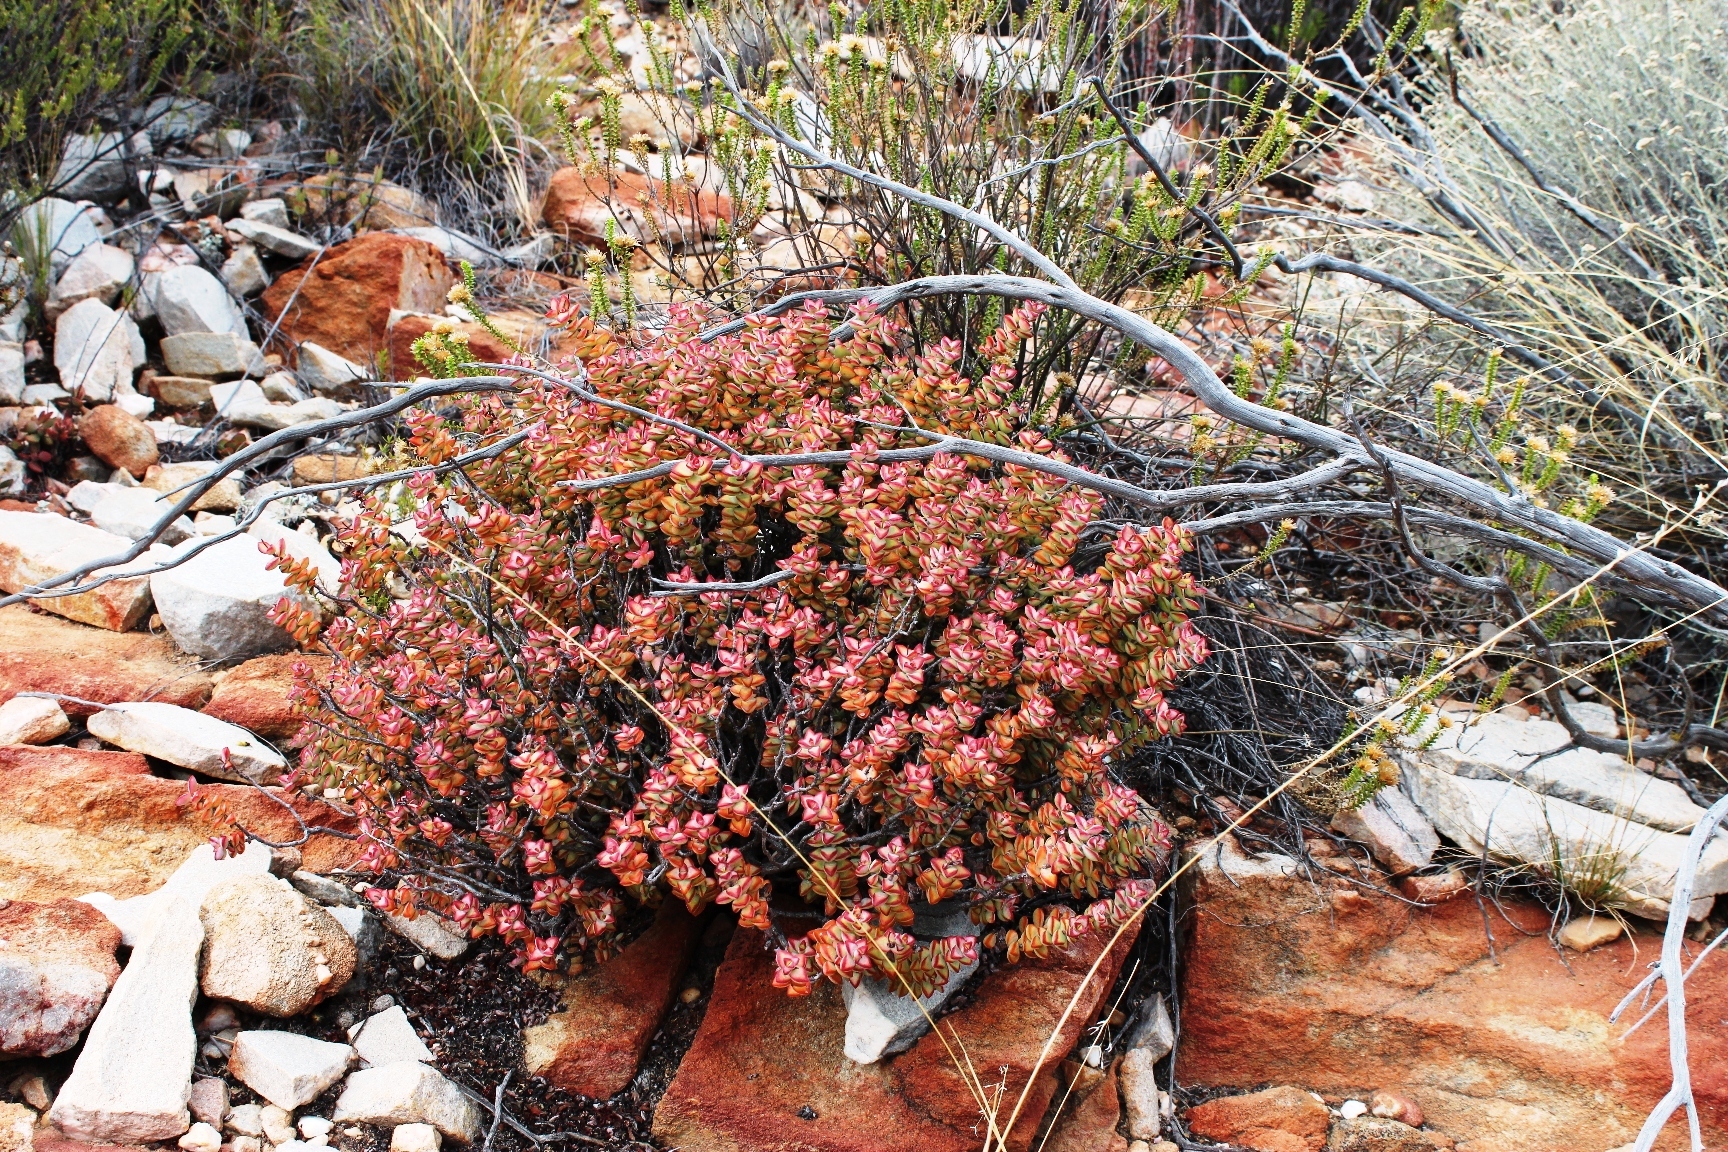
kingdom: Plantae
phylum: Tracheophyta
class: Magnoliopsida
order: Saxifragales
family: Crassulaceae
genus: Crassula
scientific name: Crassula rupestris
